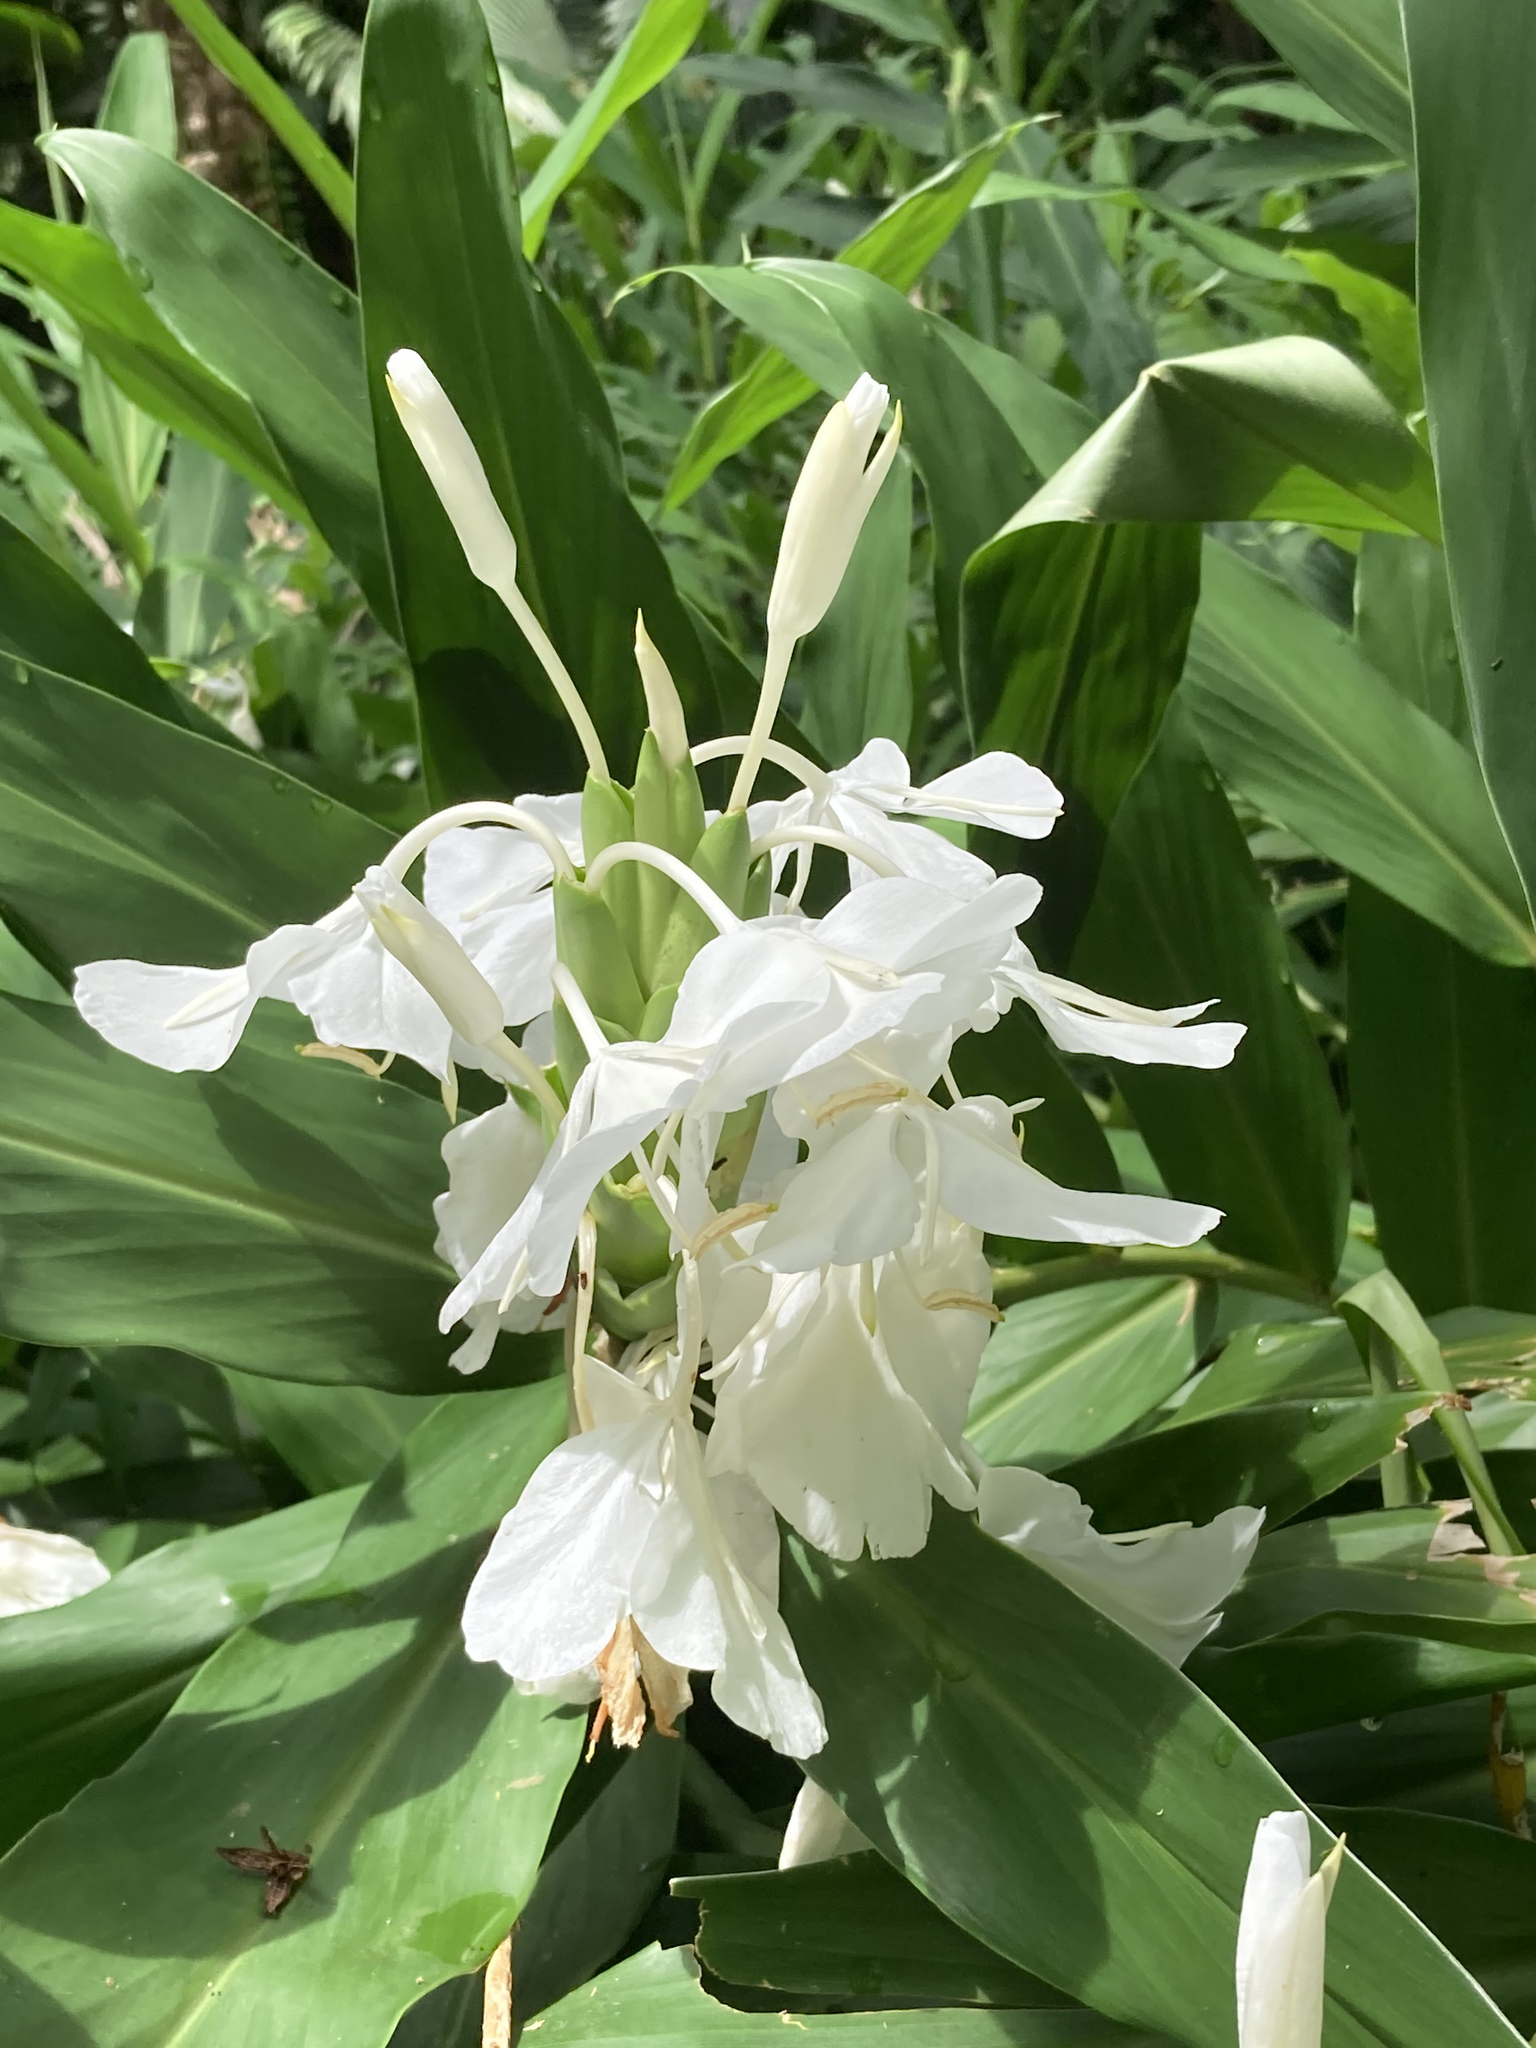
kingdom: Plantae
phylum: Tracheophyta
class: Liliopsida
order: Zingiberales
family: Zingiberaceae
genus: Hedychium
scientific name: Hedychium coronarium
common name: White garland-lily
